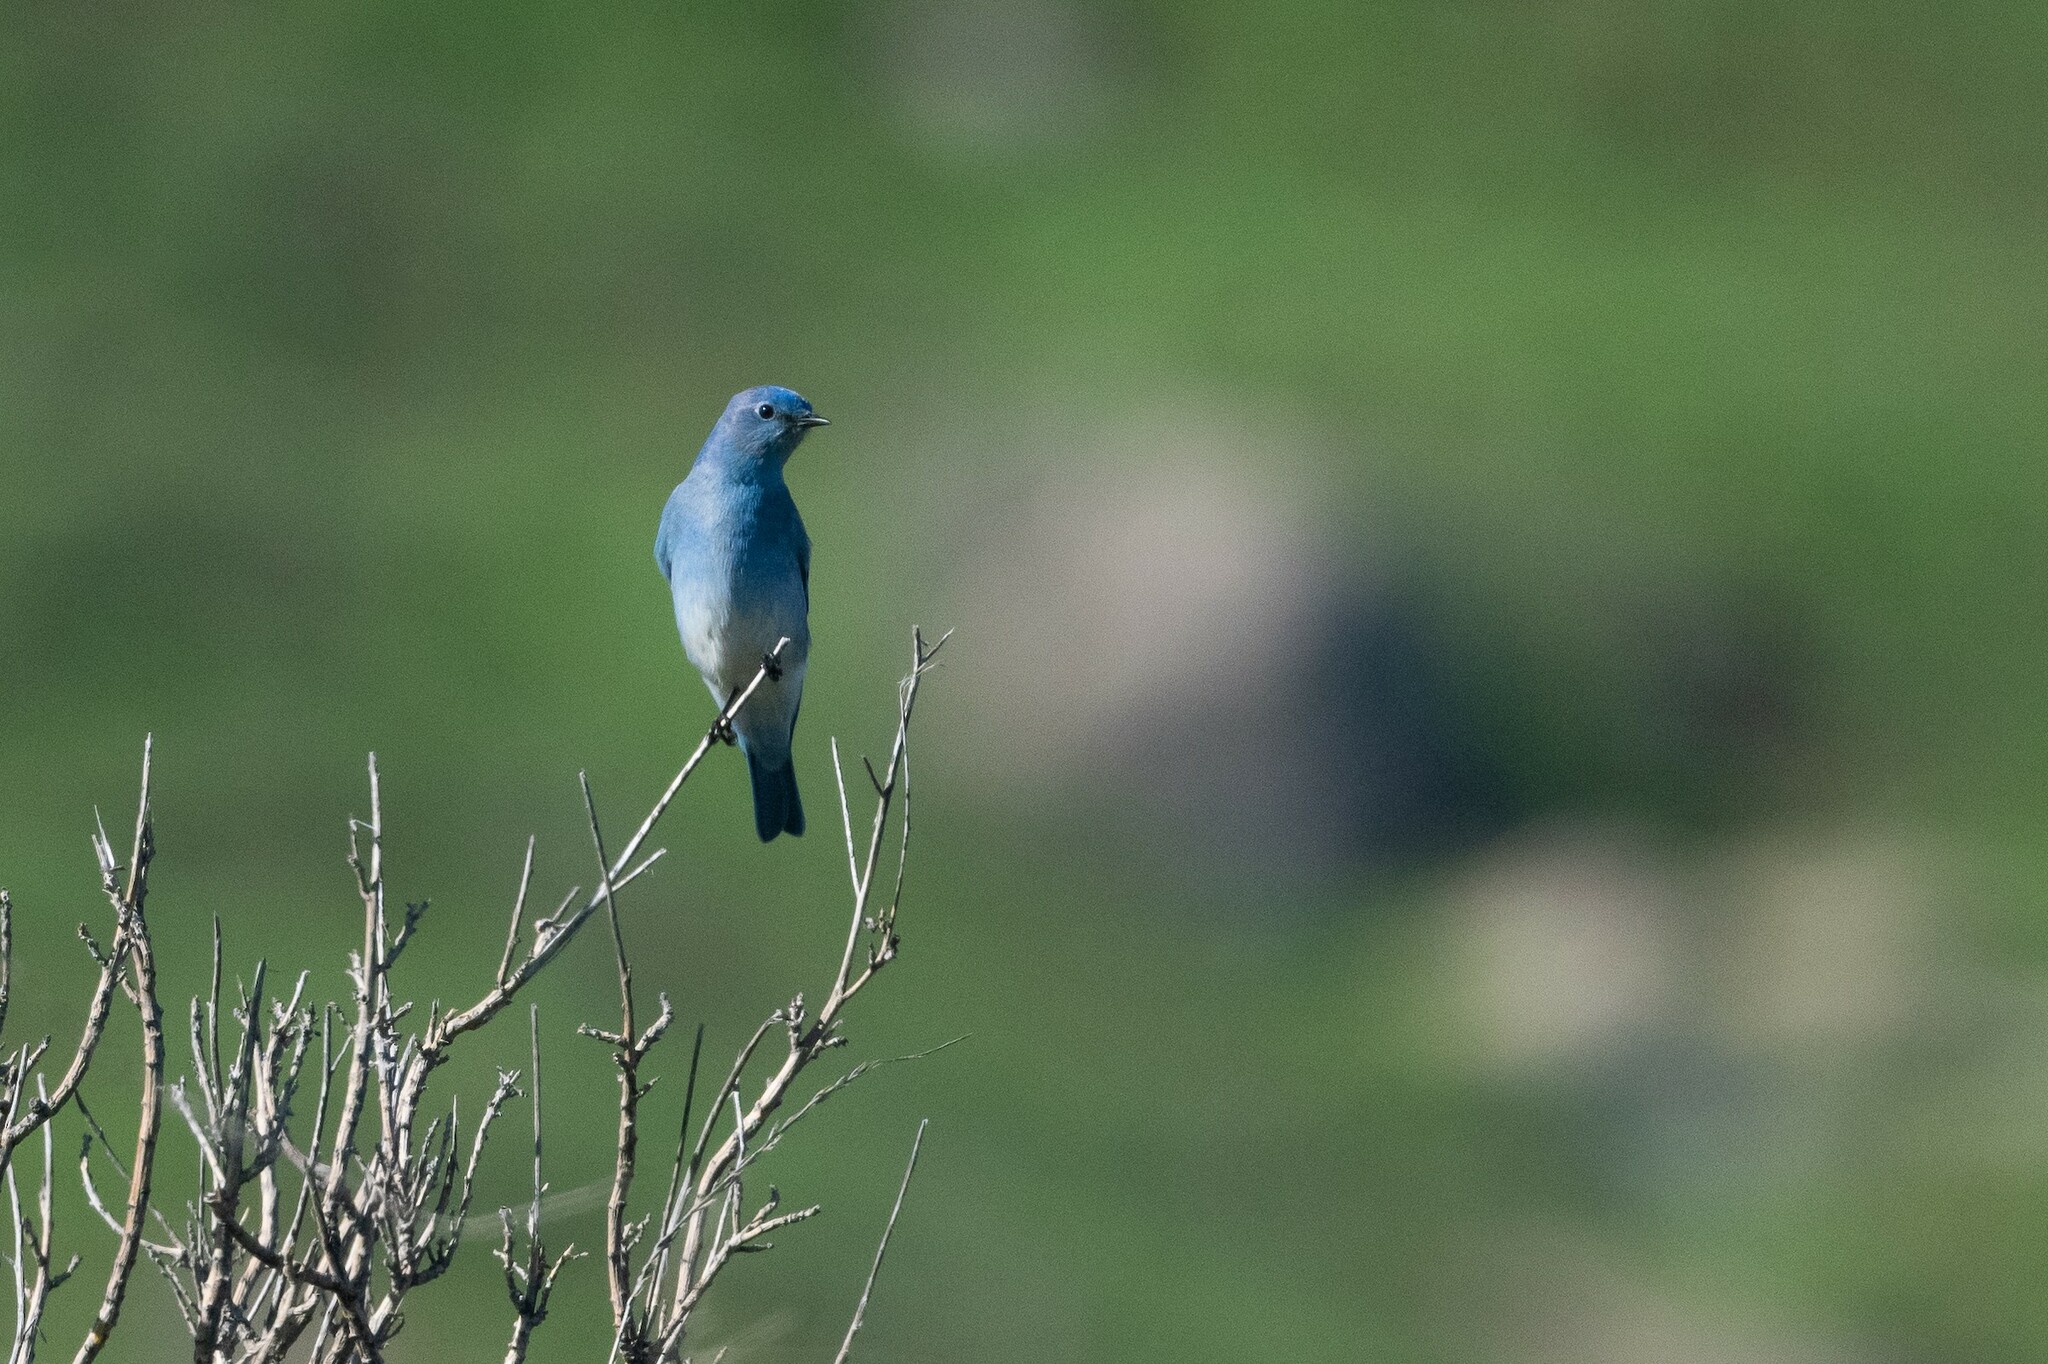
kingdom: Animalia
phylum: Chordata
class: Aves
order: Passeriformes
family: Turdidae
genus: Sialia
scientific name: Sialia currucoides
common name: Mountain bluebird
